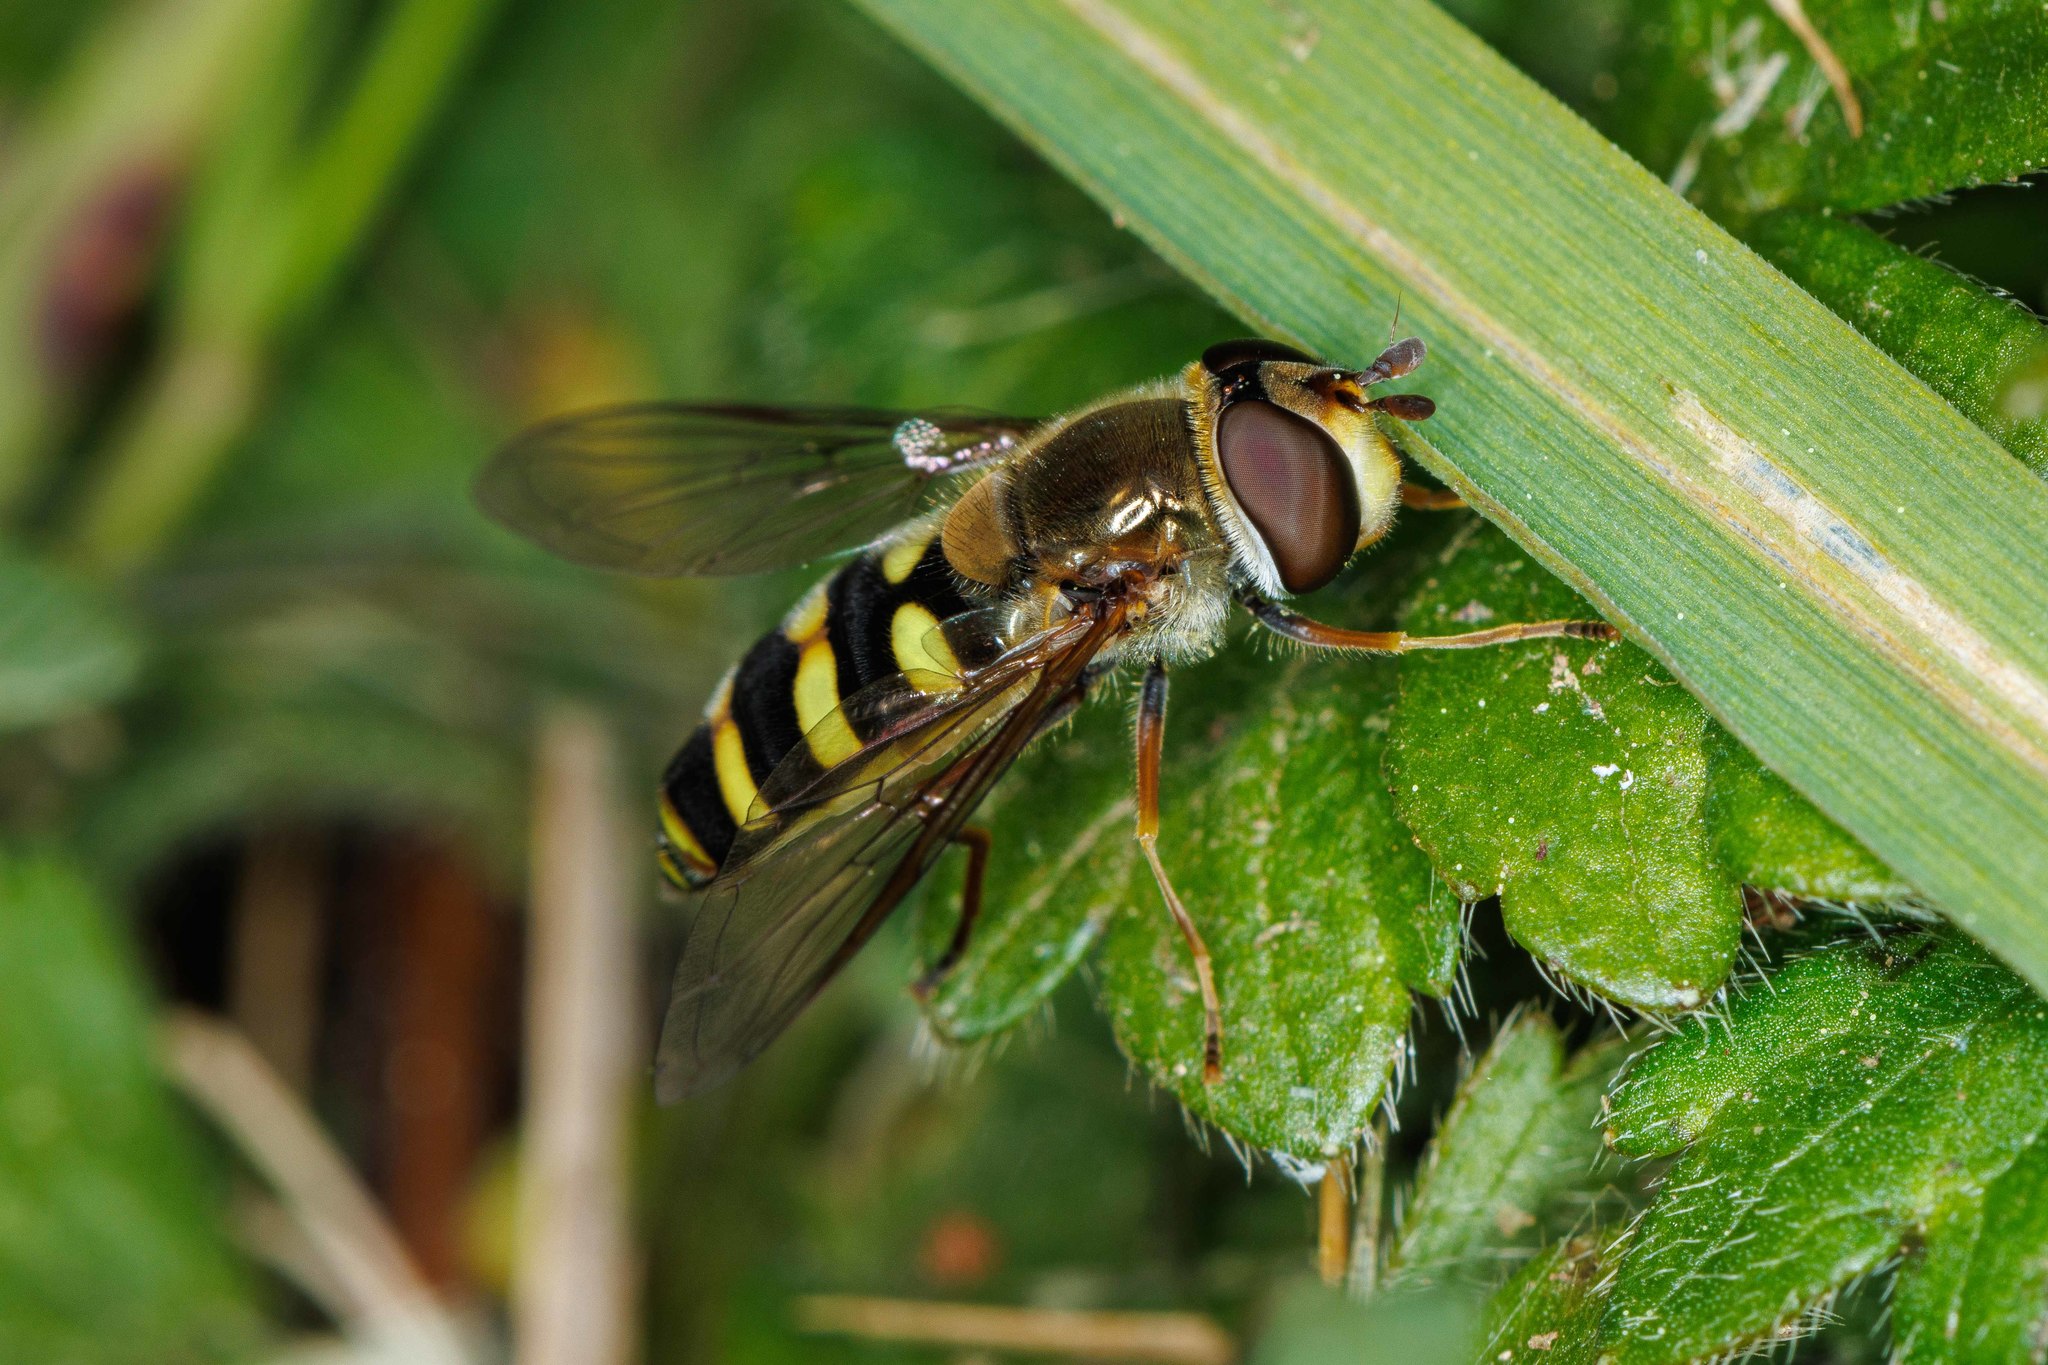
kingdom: Animalia
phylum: Arthropoda
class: Insecta
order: Diptera
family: Syrphidae
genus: Eupeodes
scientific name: Eupeodes fumipennis
